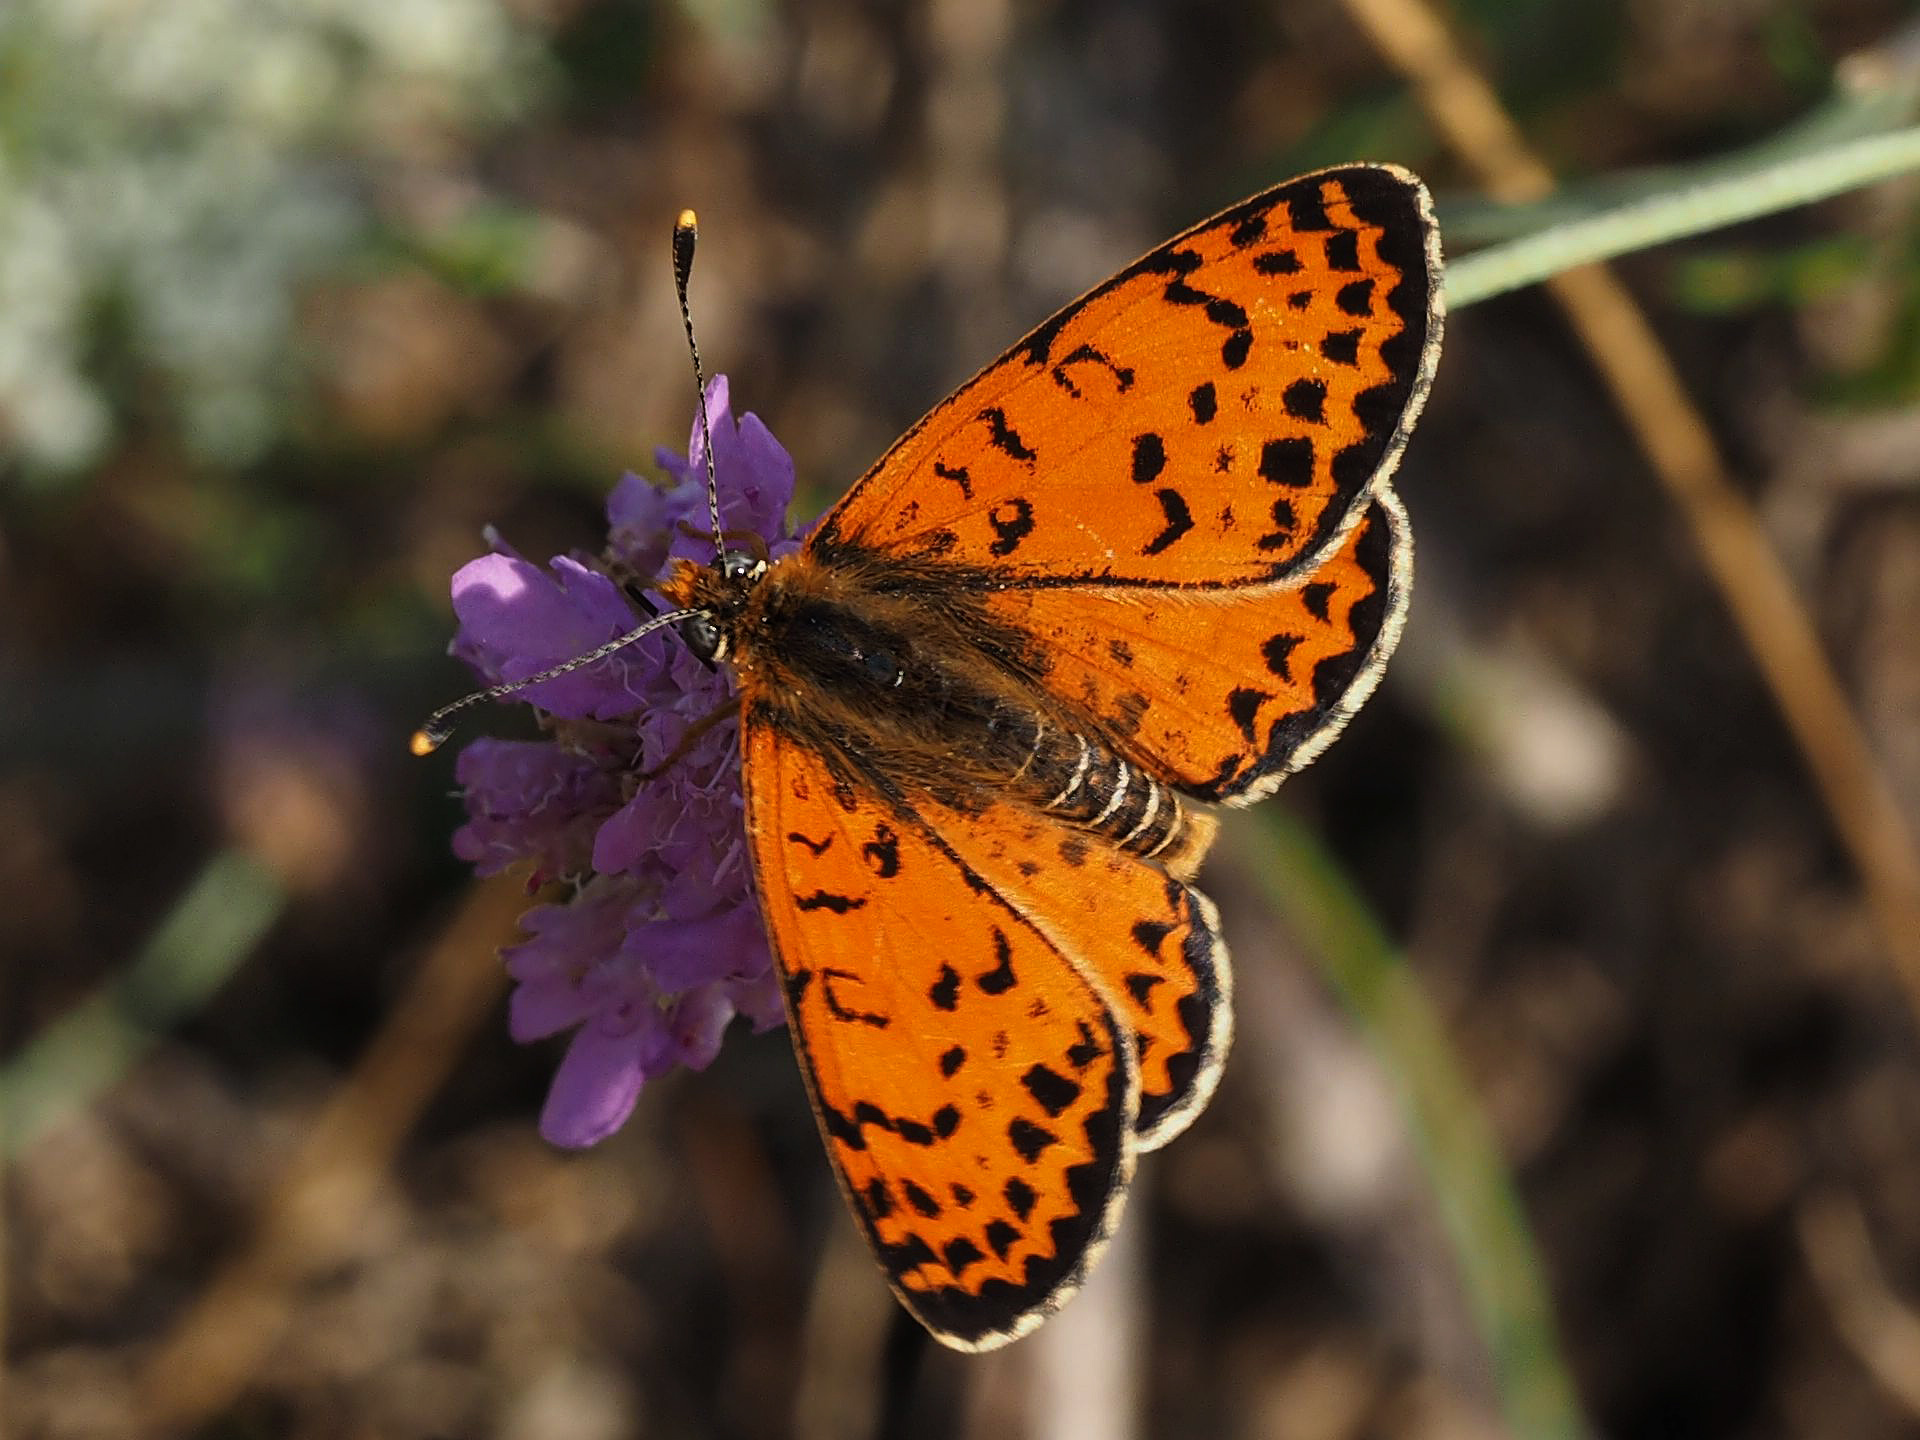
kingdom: Animalia
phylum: Arthropoda
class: Insecta
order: Lepidoptera
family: Nymphalidae
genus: Melitaea
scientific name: Melitaea didyma
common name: Spotted fritillary
